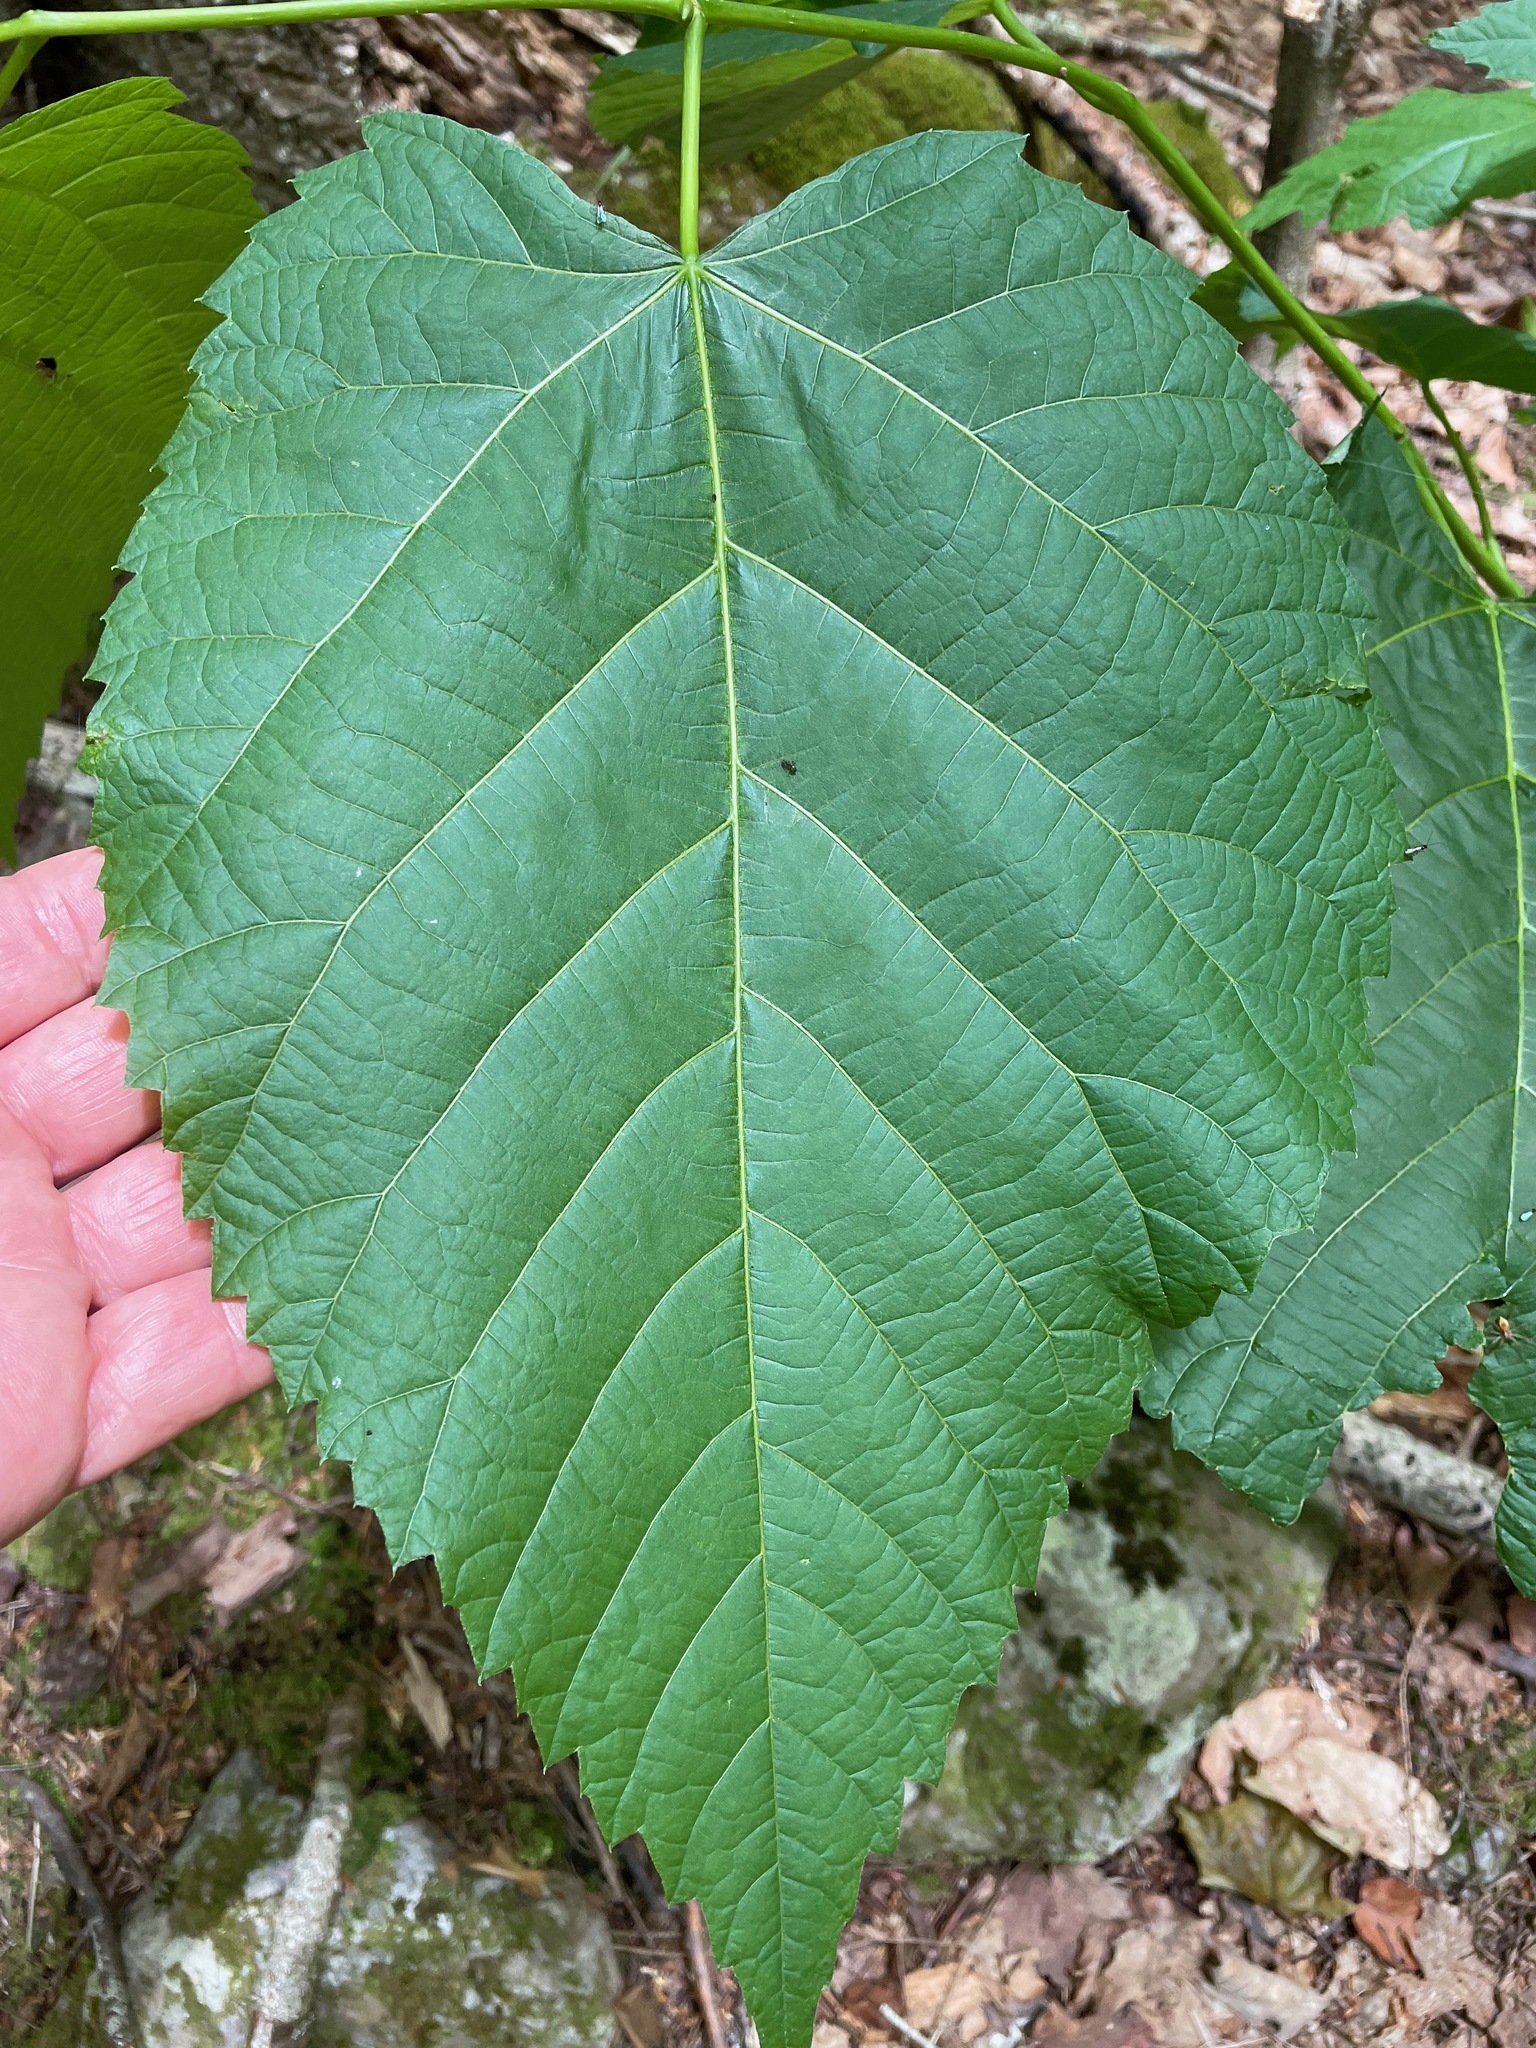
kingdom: Plantae
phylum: Tracheophyta
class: Magnoliopsida
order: Malvales
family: Malvaceae
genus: Tilia
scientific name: Tilia americana
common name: Basswood
